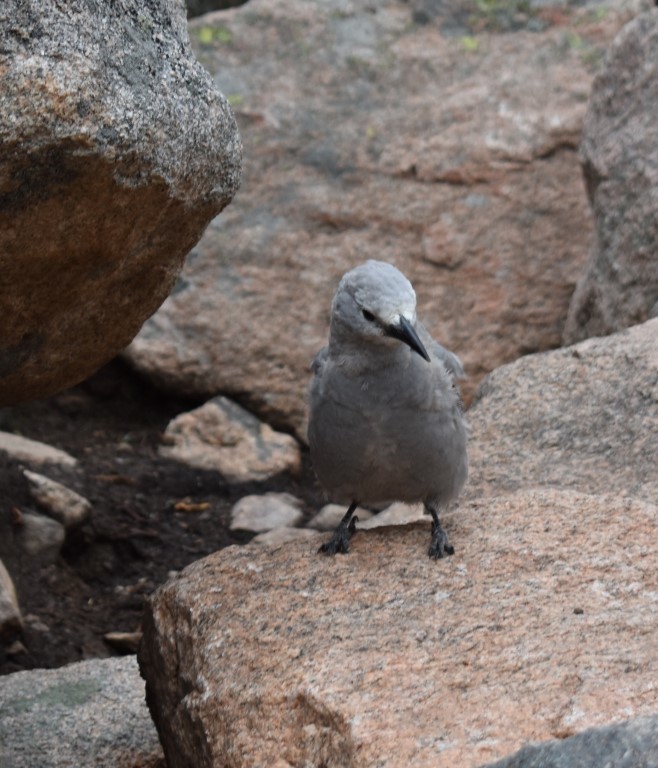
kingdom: Animalia
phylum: Chordata
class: Aves
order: Passeriformes
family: Corvidae
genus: Nucifraga
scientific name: Nucifraga columbiana
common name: Clark's nutcracker
